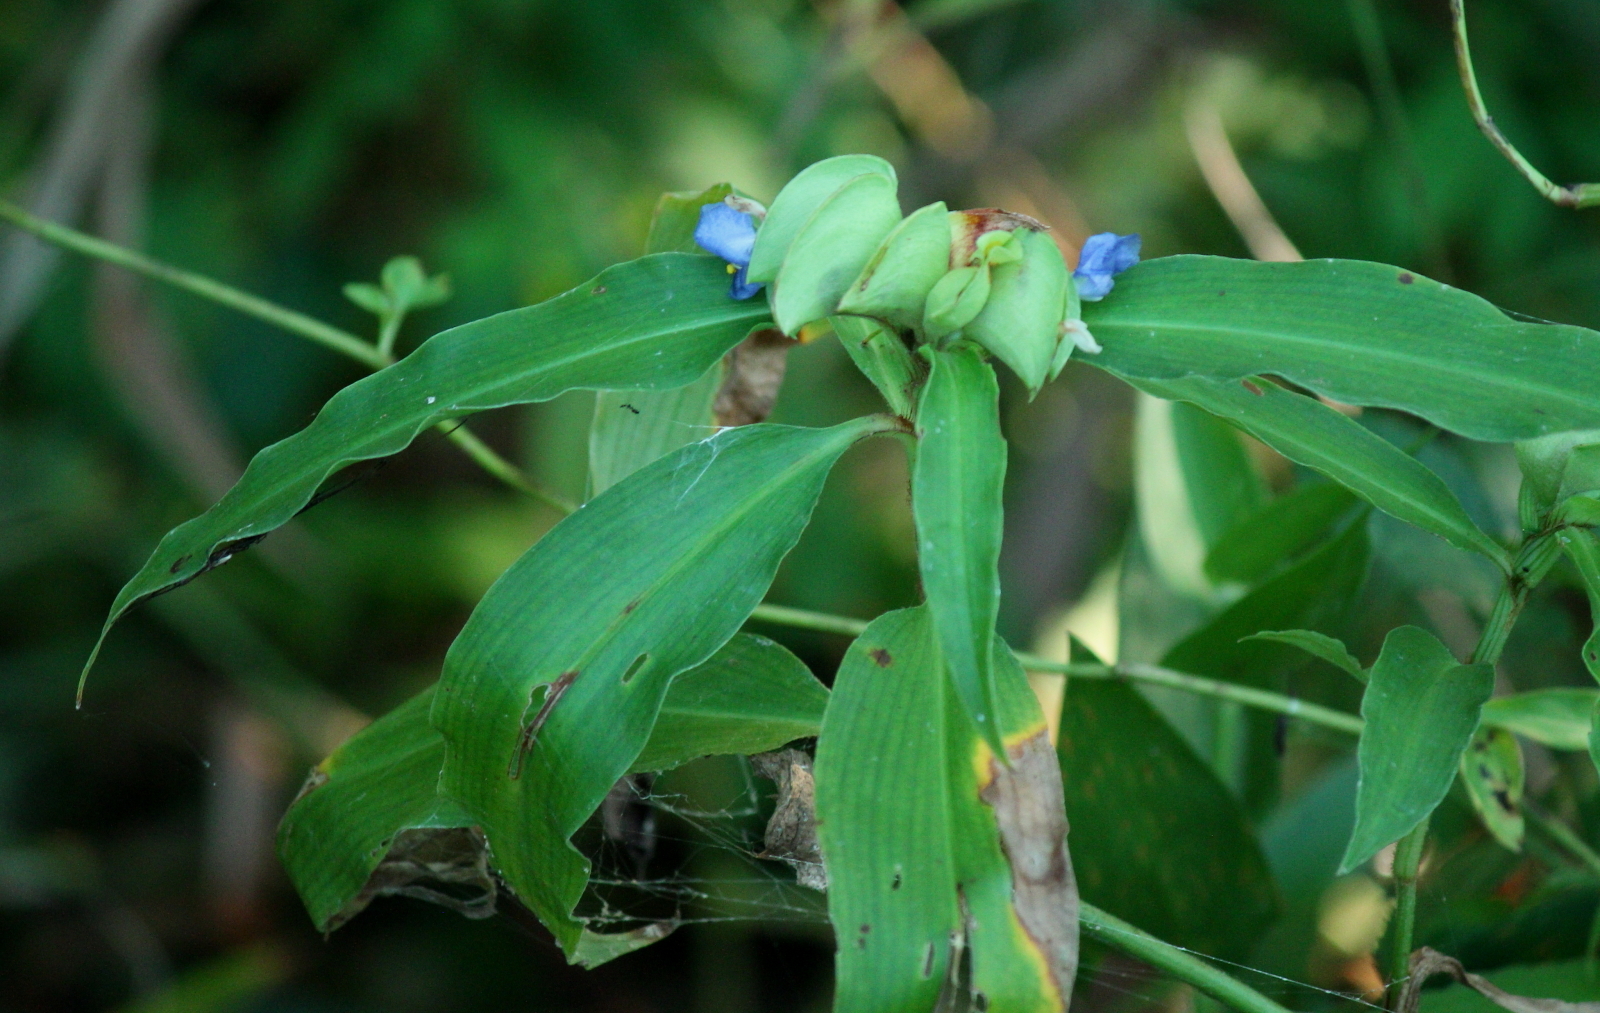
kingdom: Plantae
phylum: Tracheophyta
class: Liliopsida
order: Commelinales
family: Commelinaceae
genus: Commelina
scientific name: Commelina virginica
